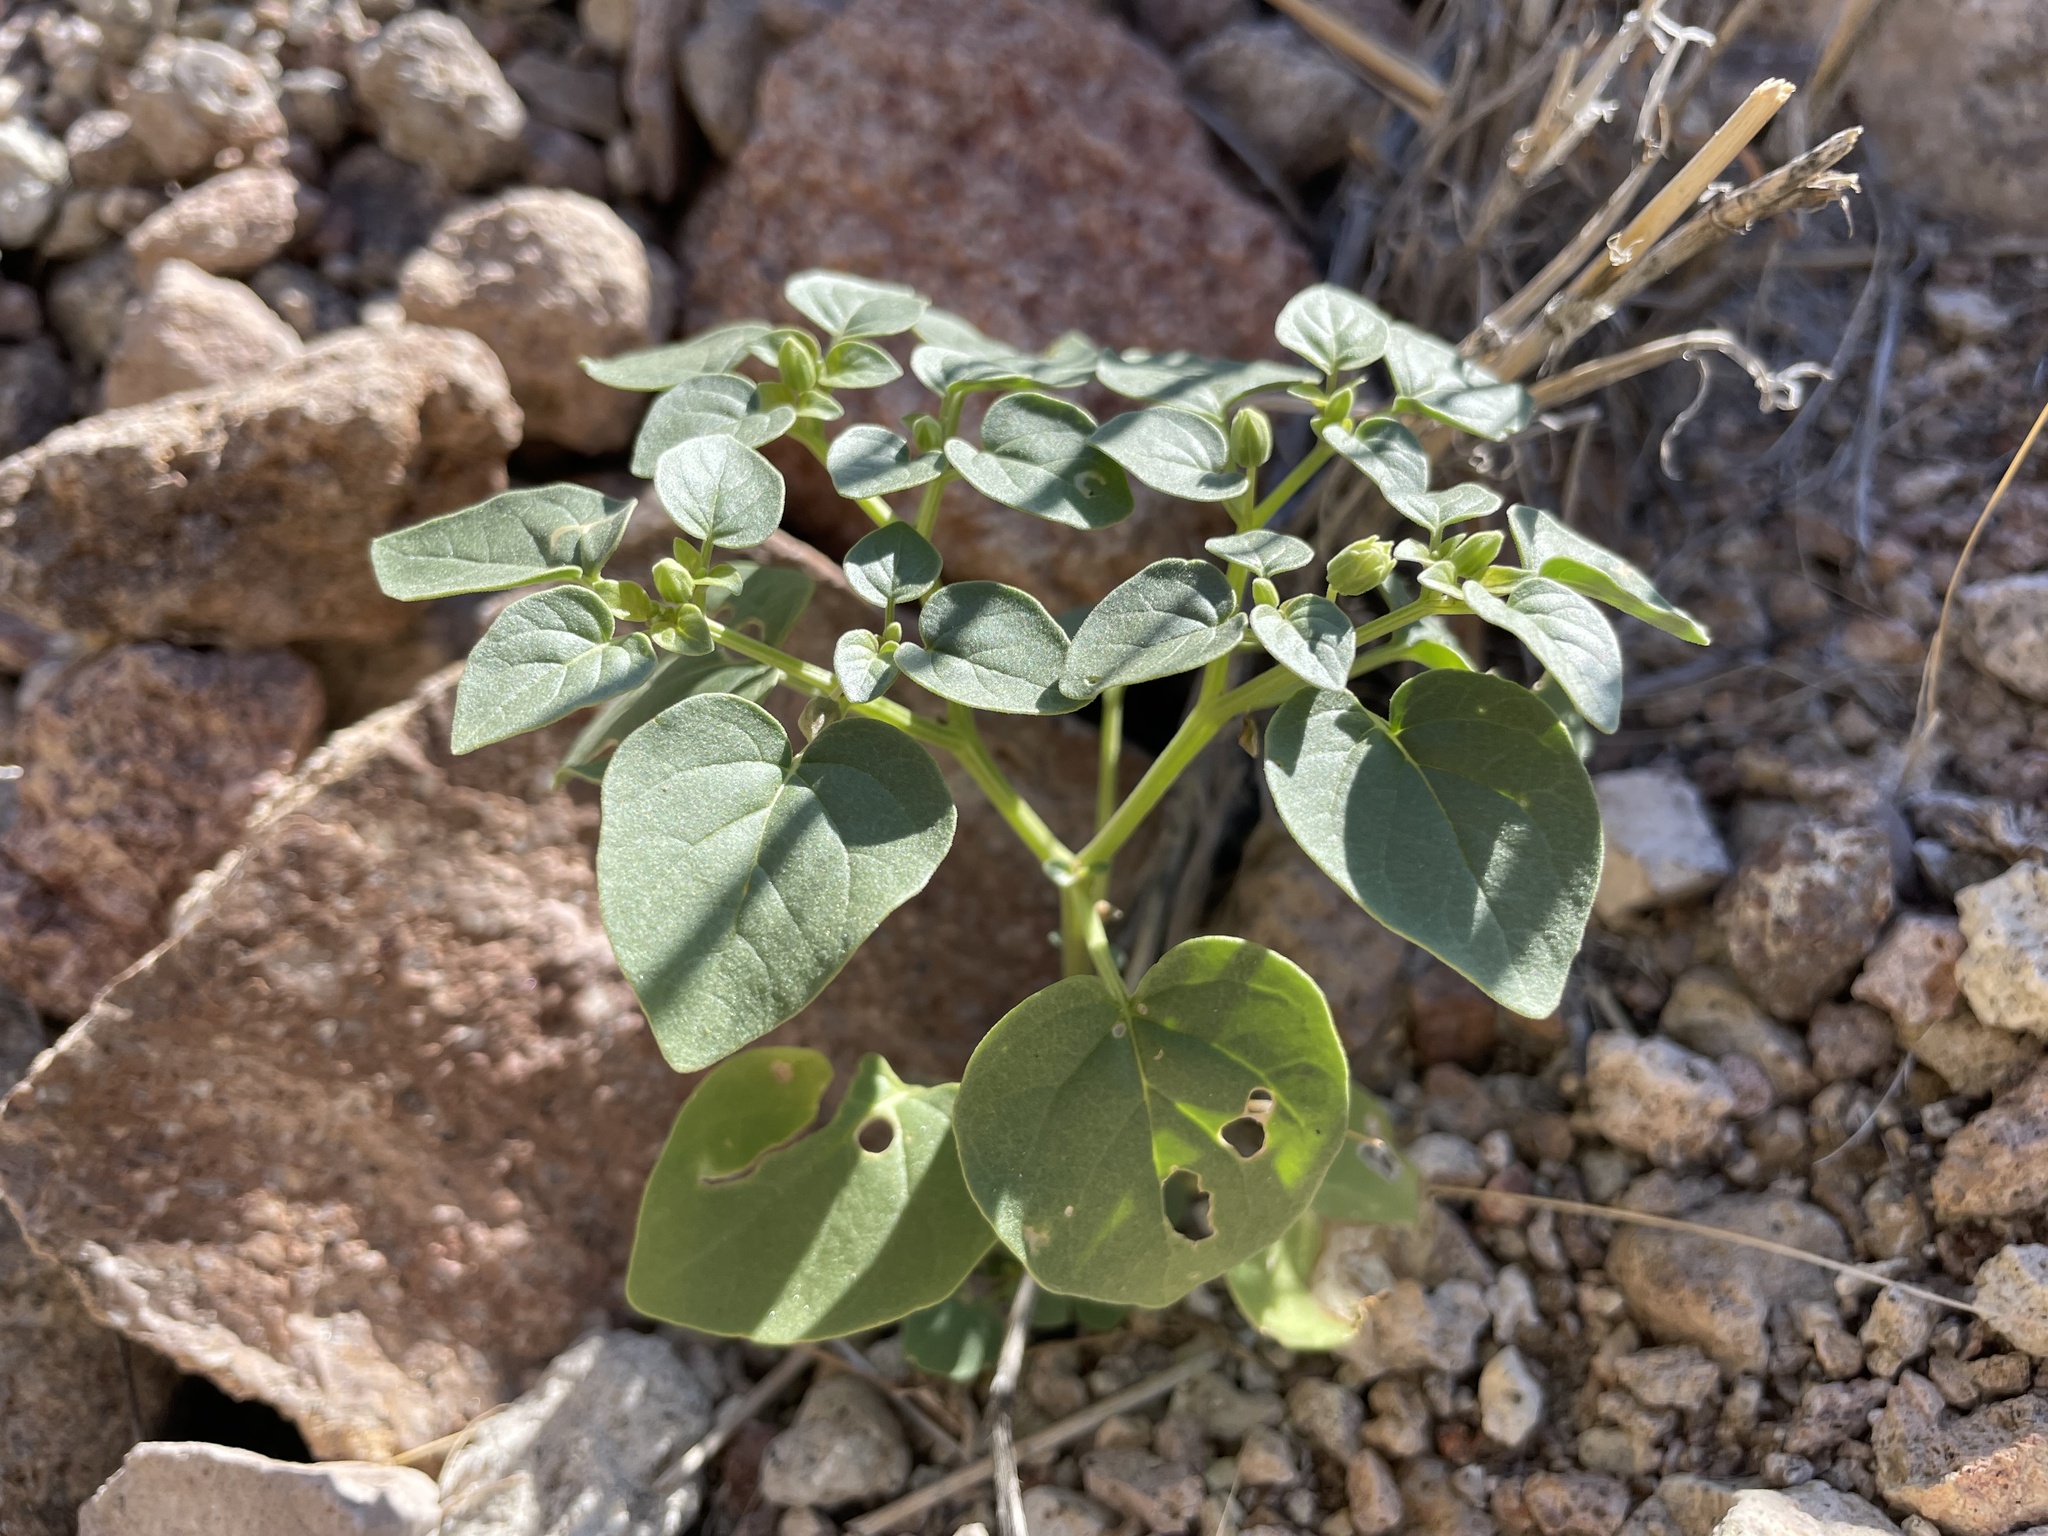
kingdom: Plantae
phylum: Tracheophyta
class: Magnoliopsida
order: Solanales
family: Solanaceae
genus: Physalis
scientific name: Physalis crassifolia
